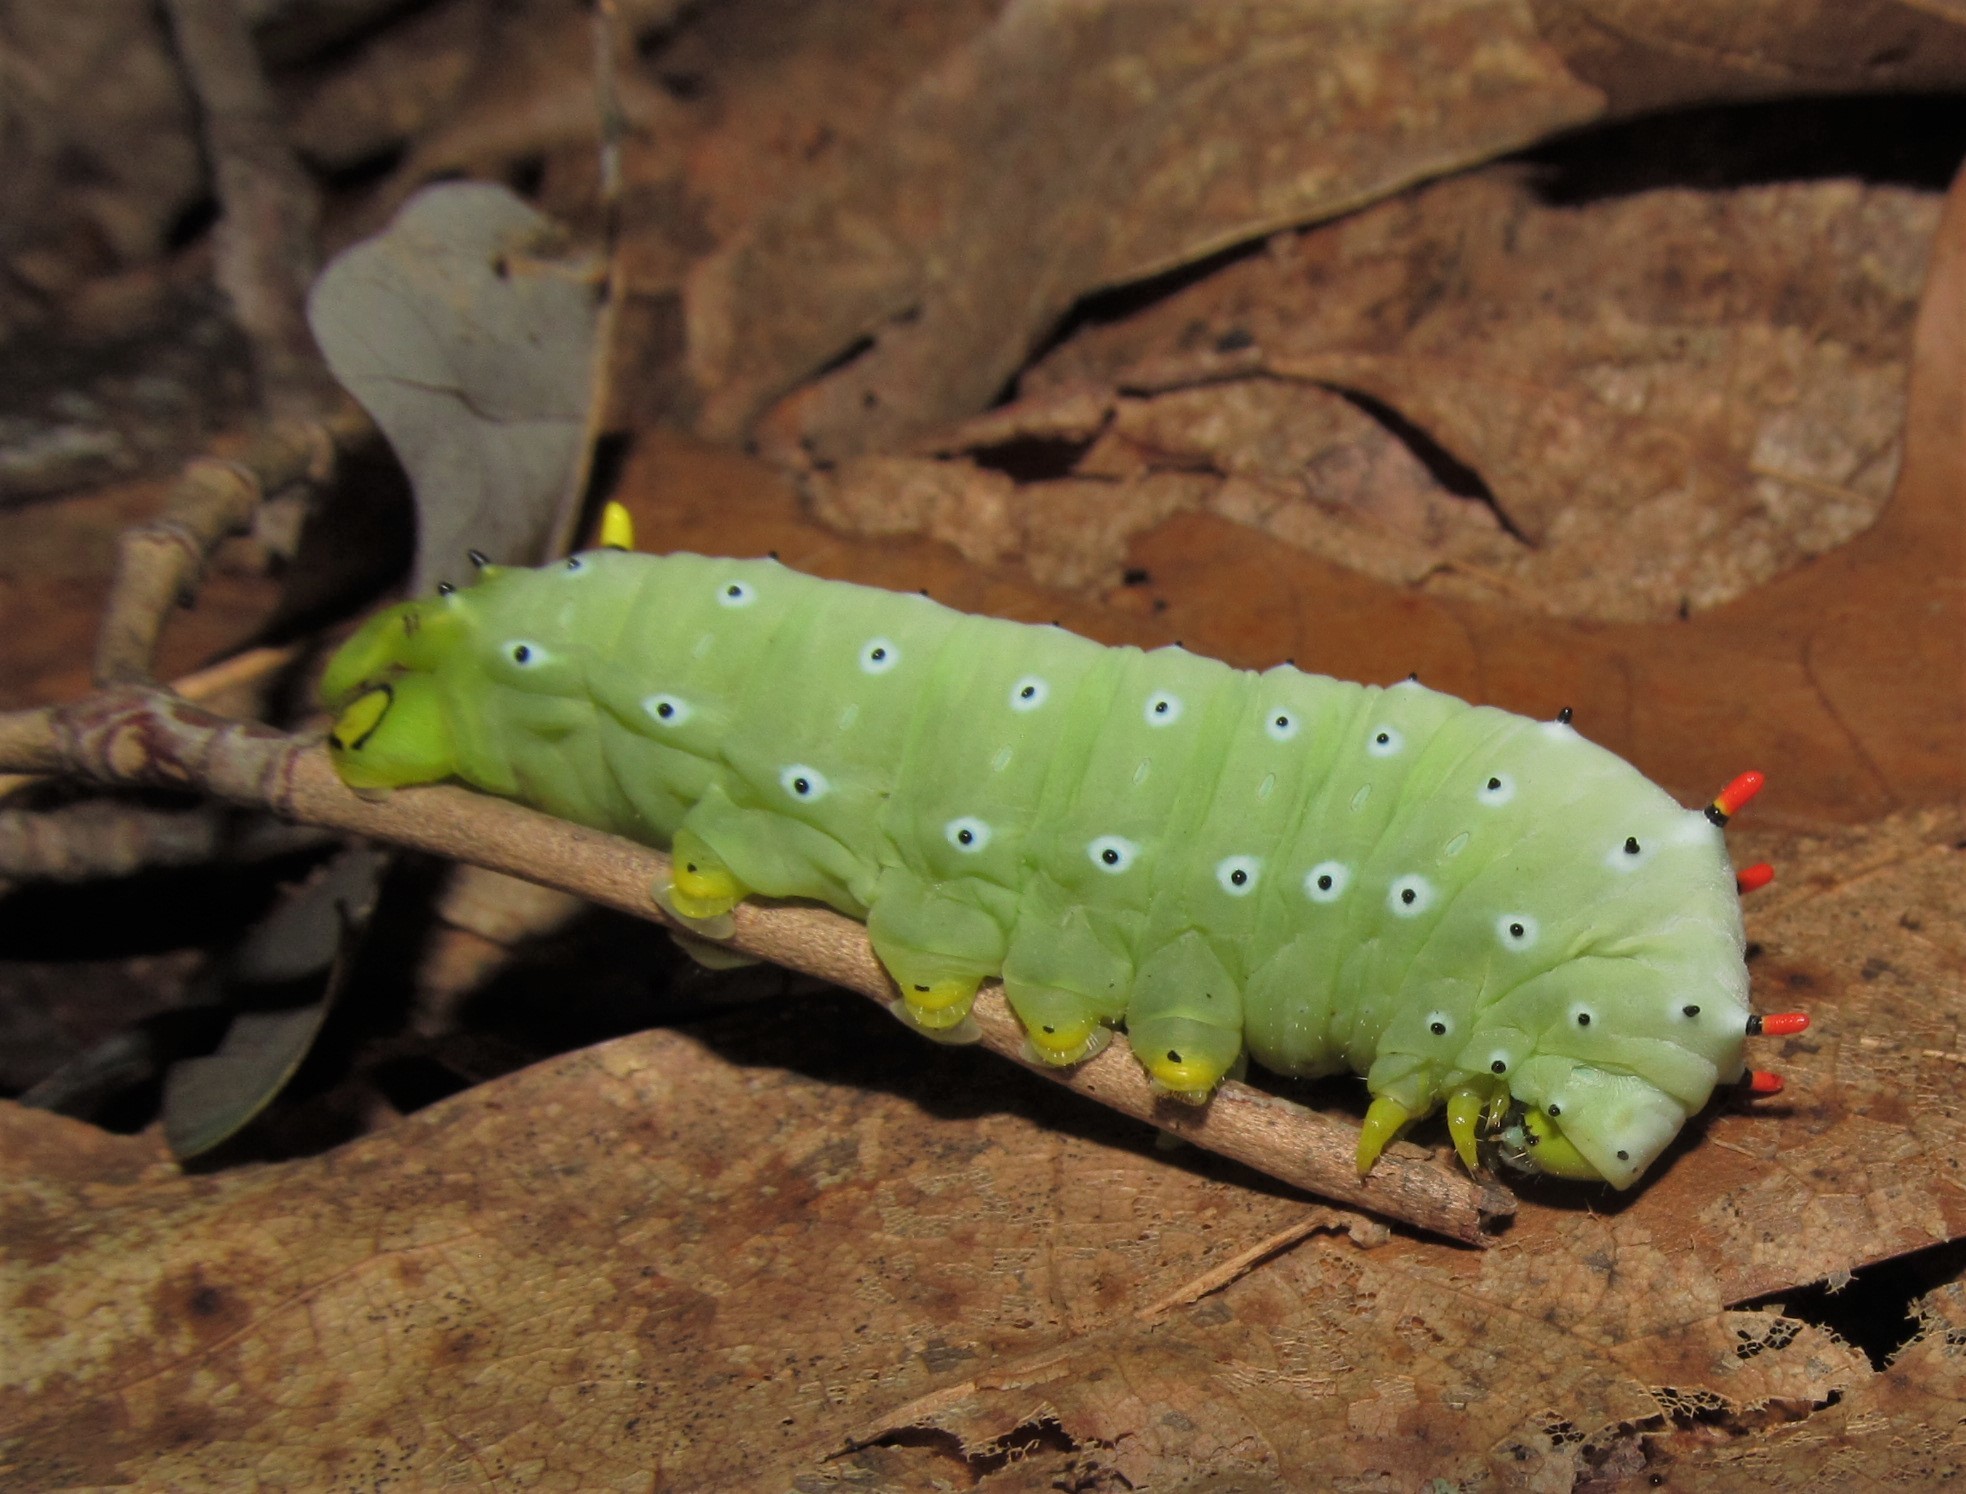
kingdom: Animalia
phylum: Arthropoda
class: Insecta
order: Lepidoptera
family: Saturniidae
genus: Callosamia
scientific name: Callosamia promethea
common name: Promethea silkmoth
